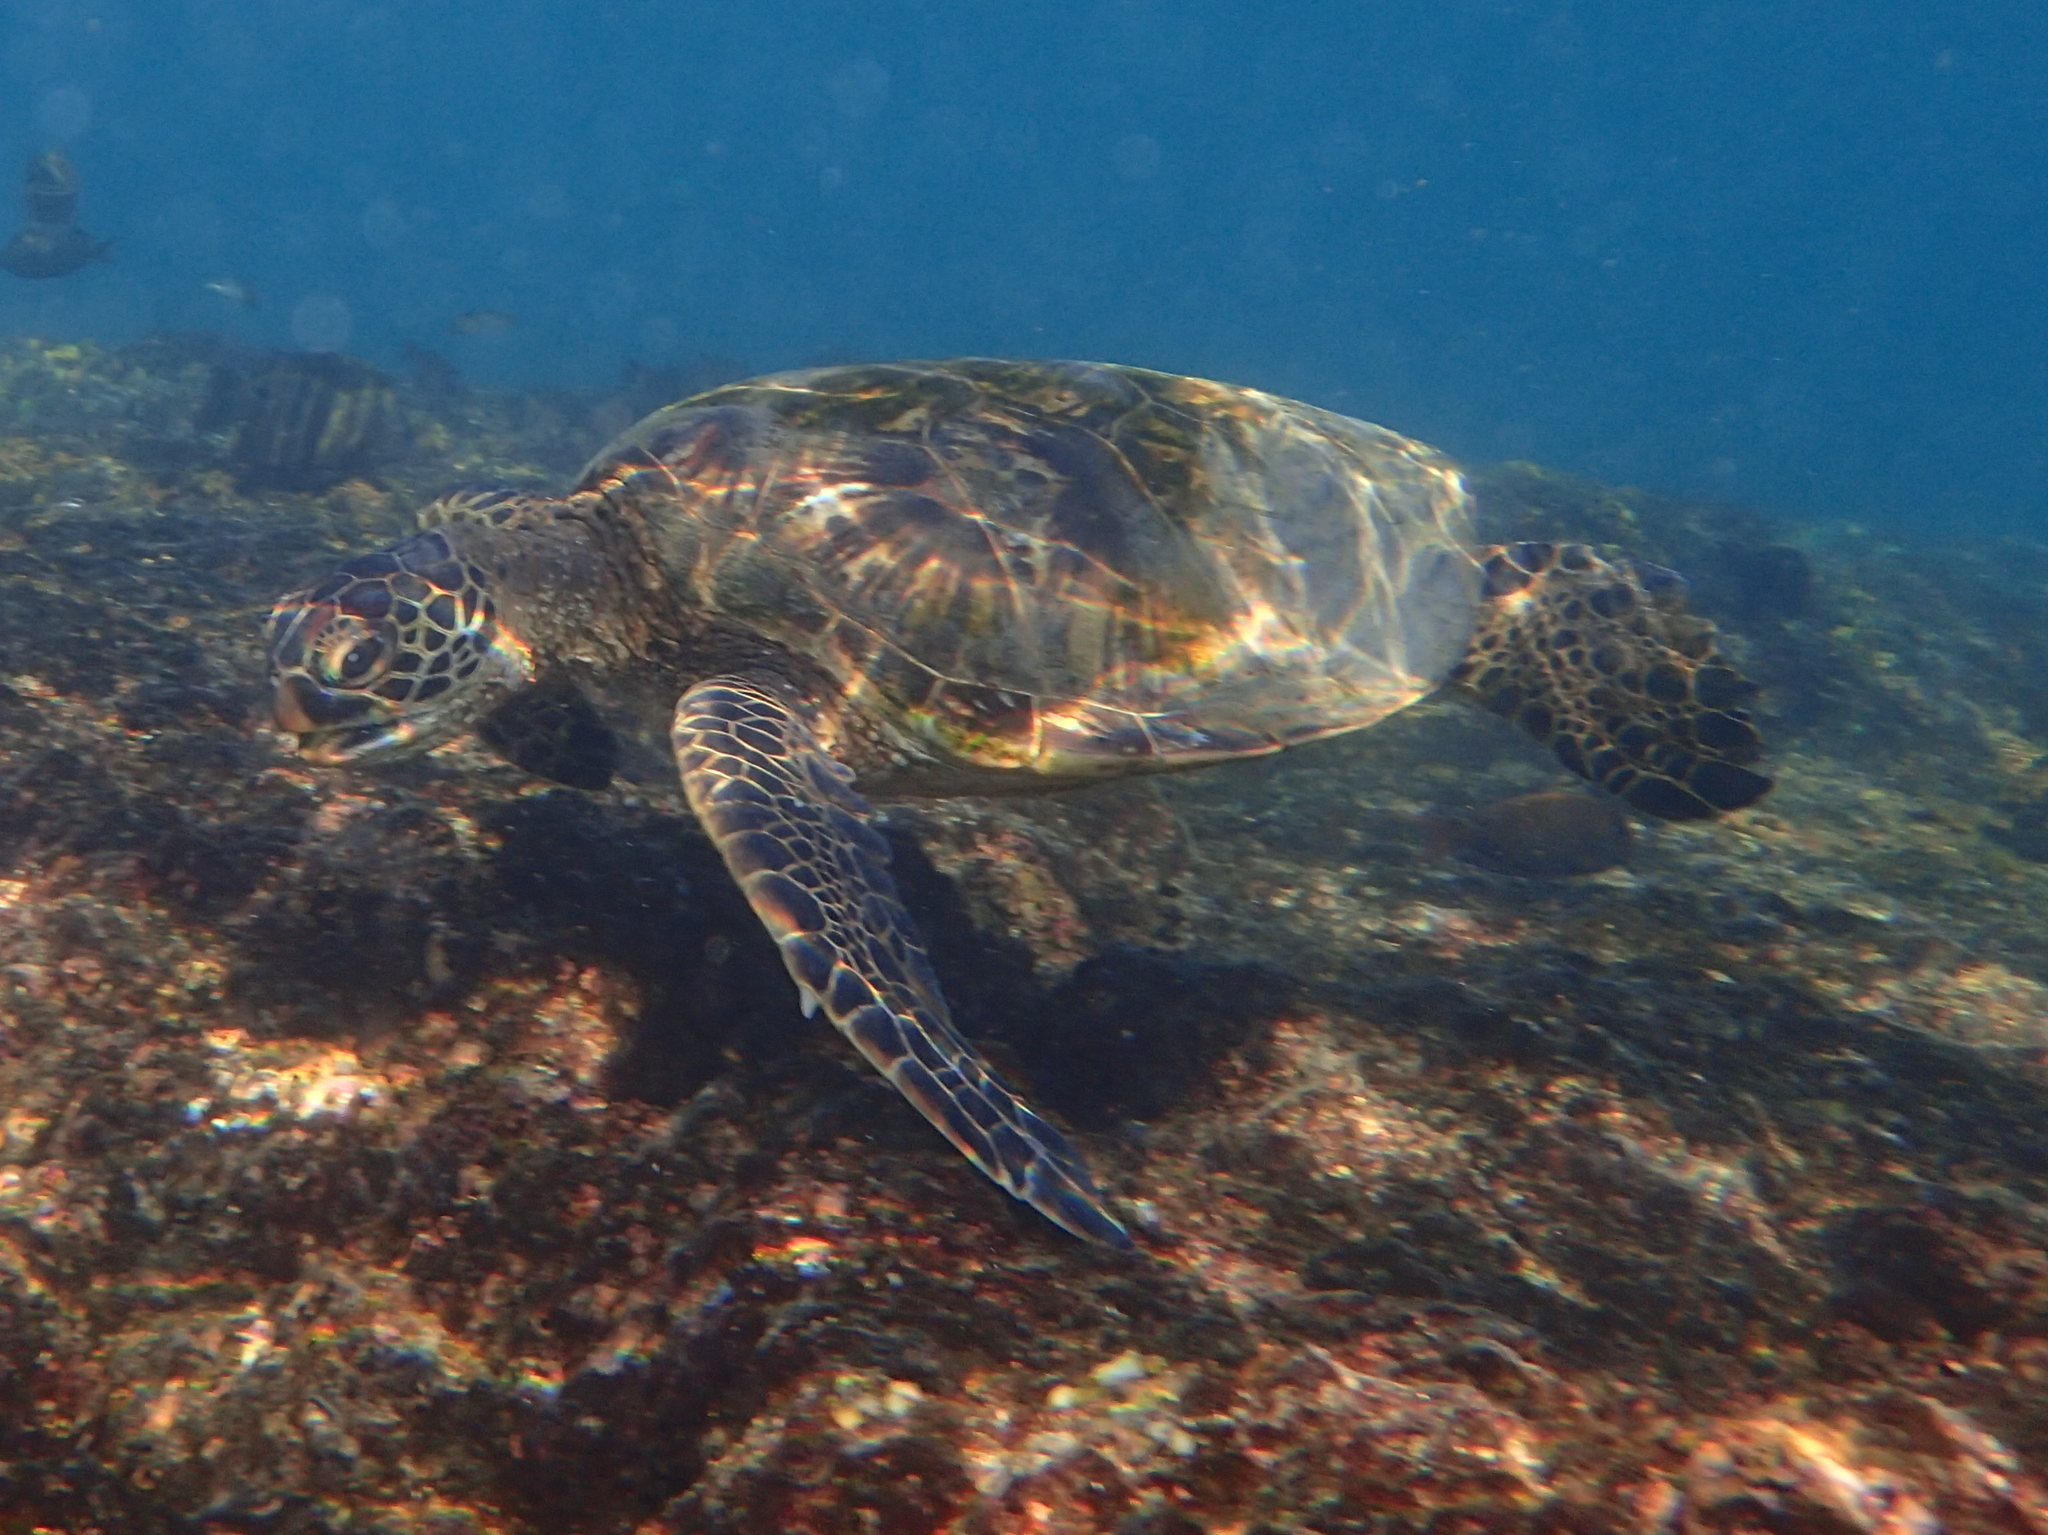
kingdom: Animalia
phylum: Chordata
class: Testudines
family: Cheloniidae
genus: Chelonia
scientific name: Chelonia mydas
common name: Green turtle
